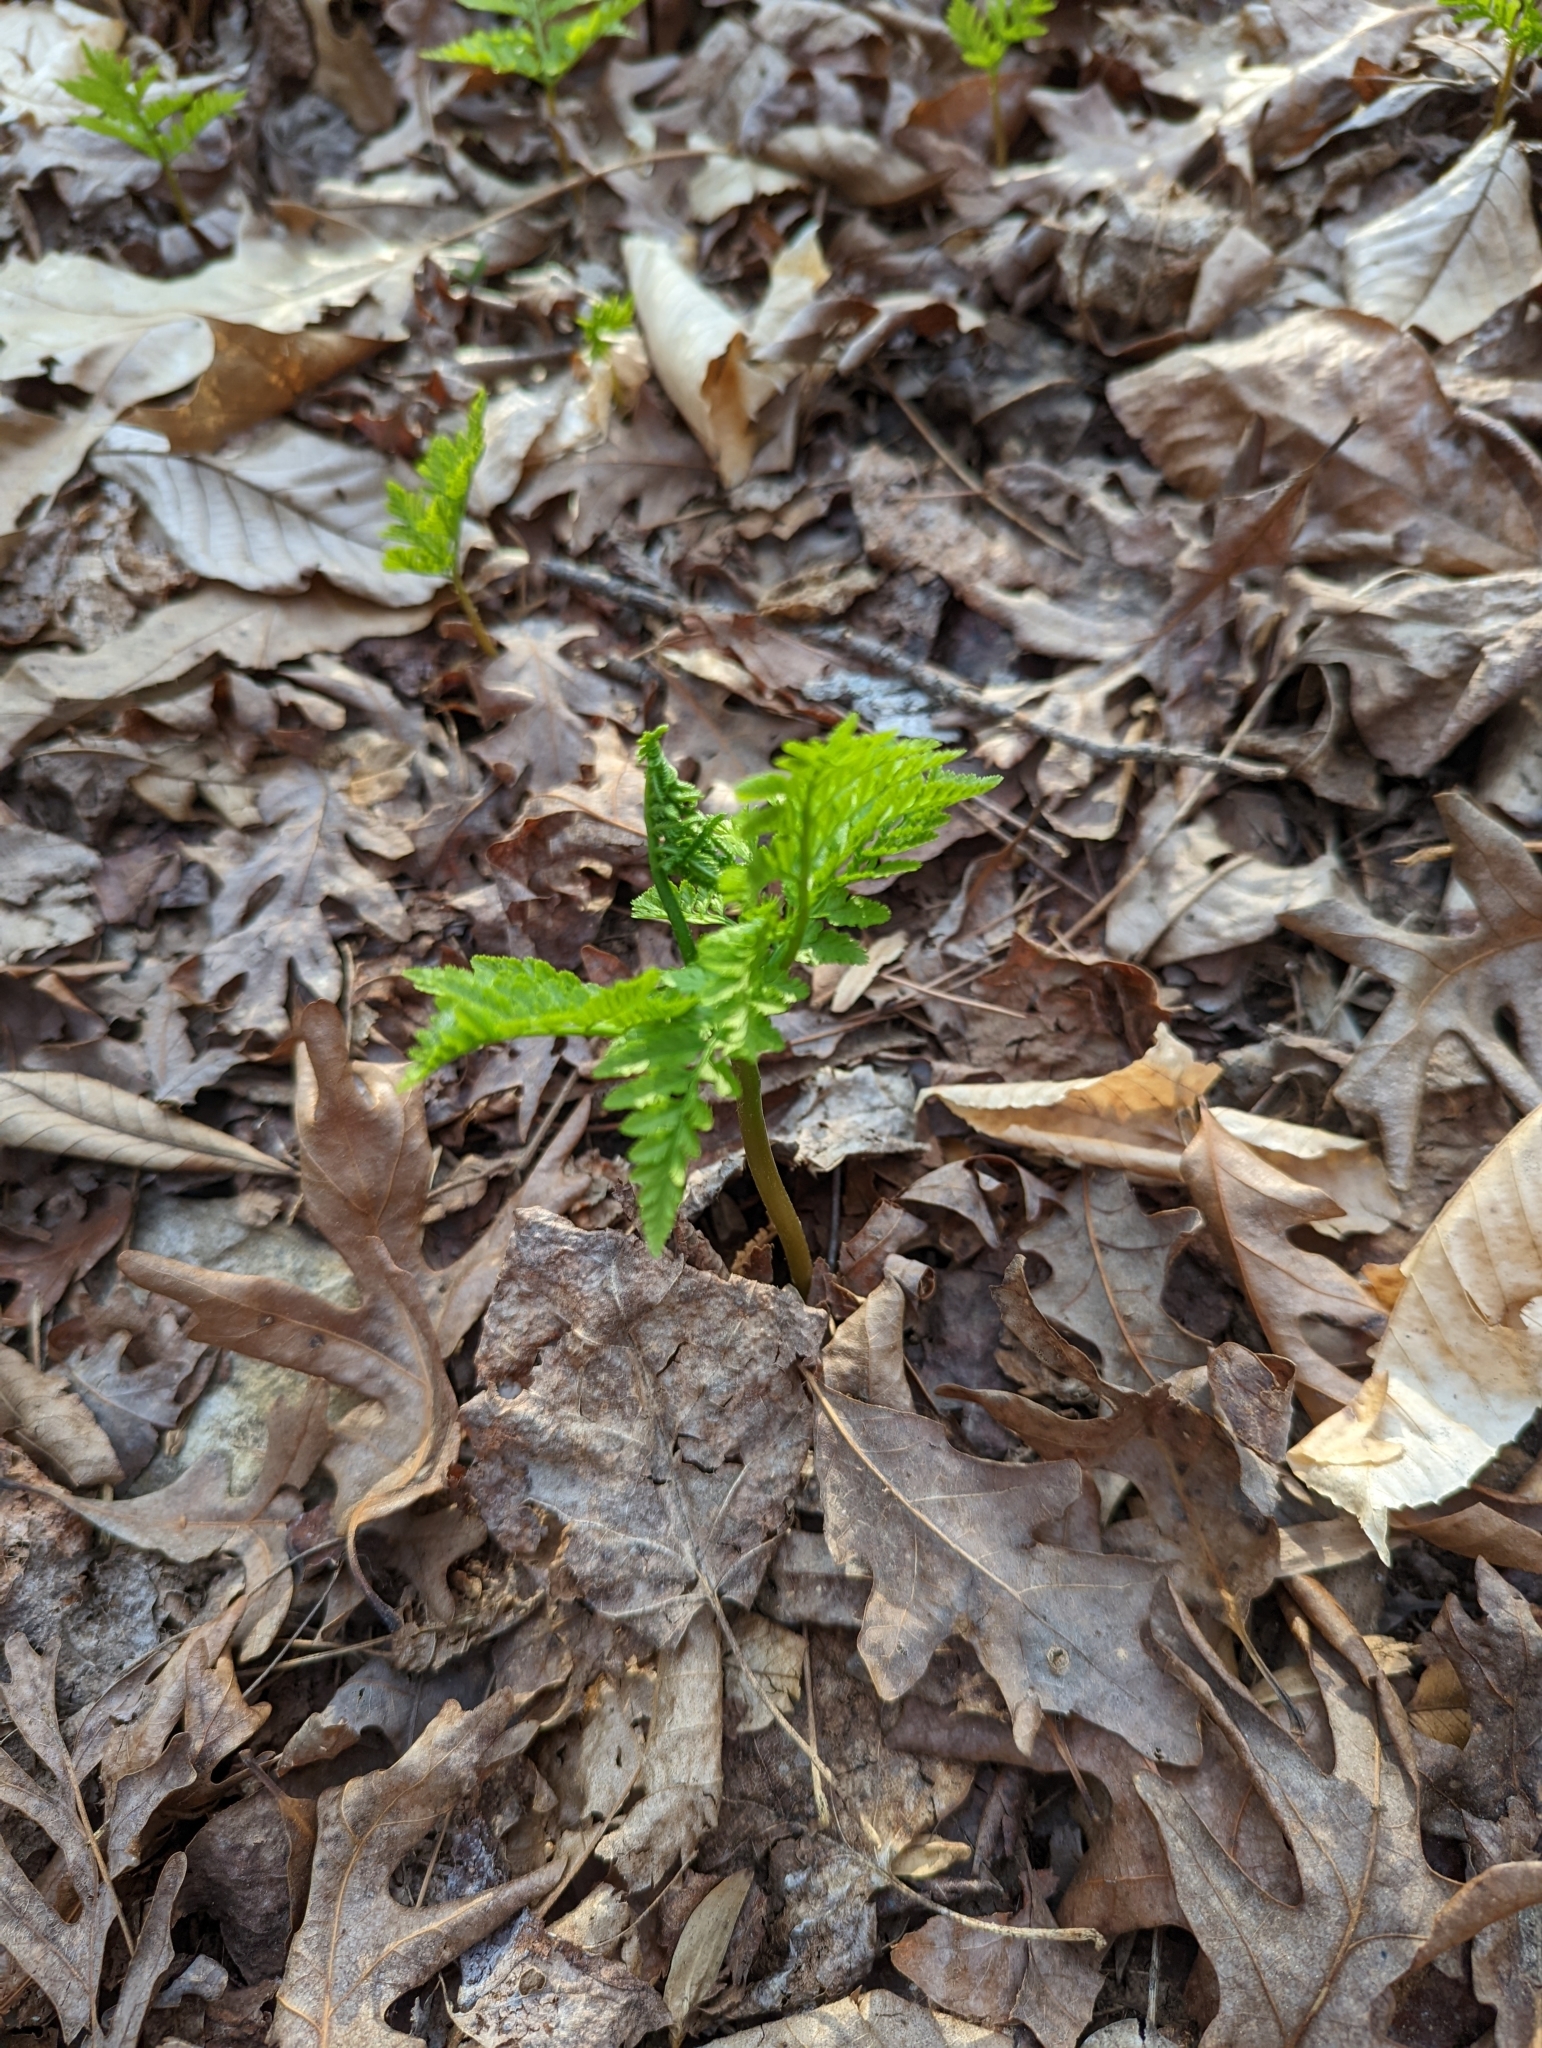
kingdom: Plantae
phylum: Tracheophyta
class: Polypodiopsida
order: Ophioglossales
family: Ophioglossaceae
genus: Botrypus
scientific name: Botrypus virginianus
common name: Common grapefern
